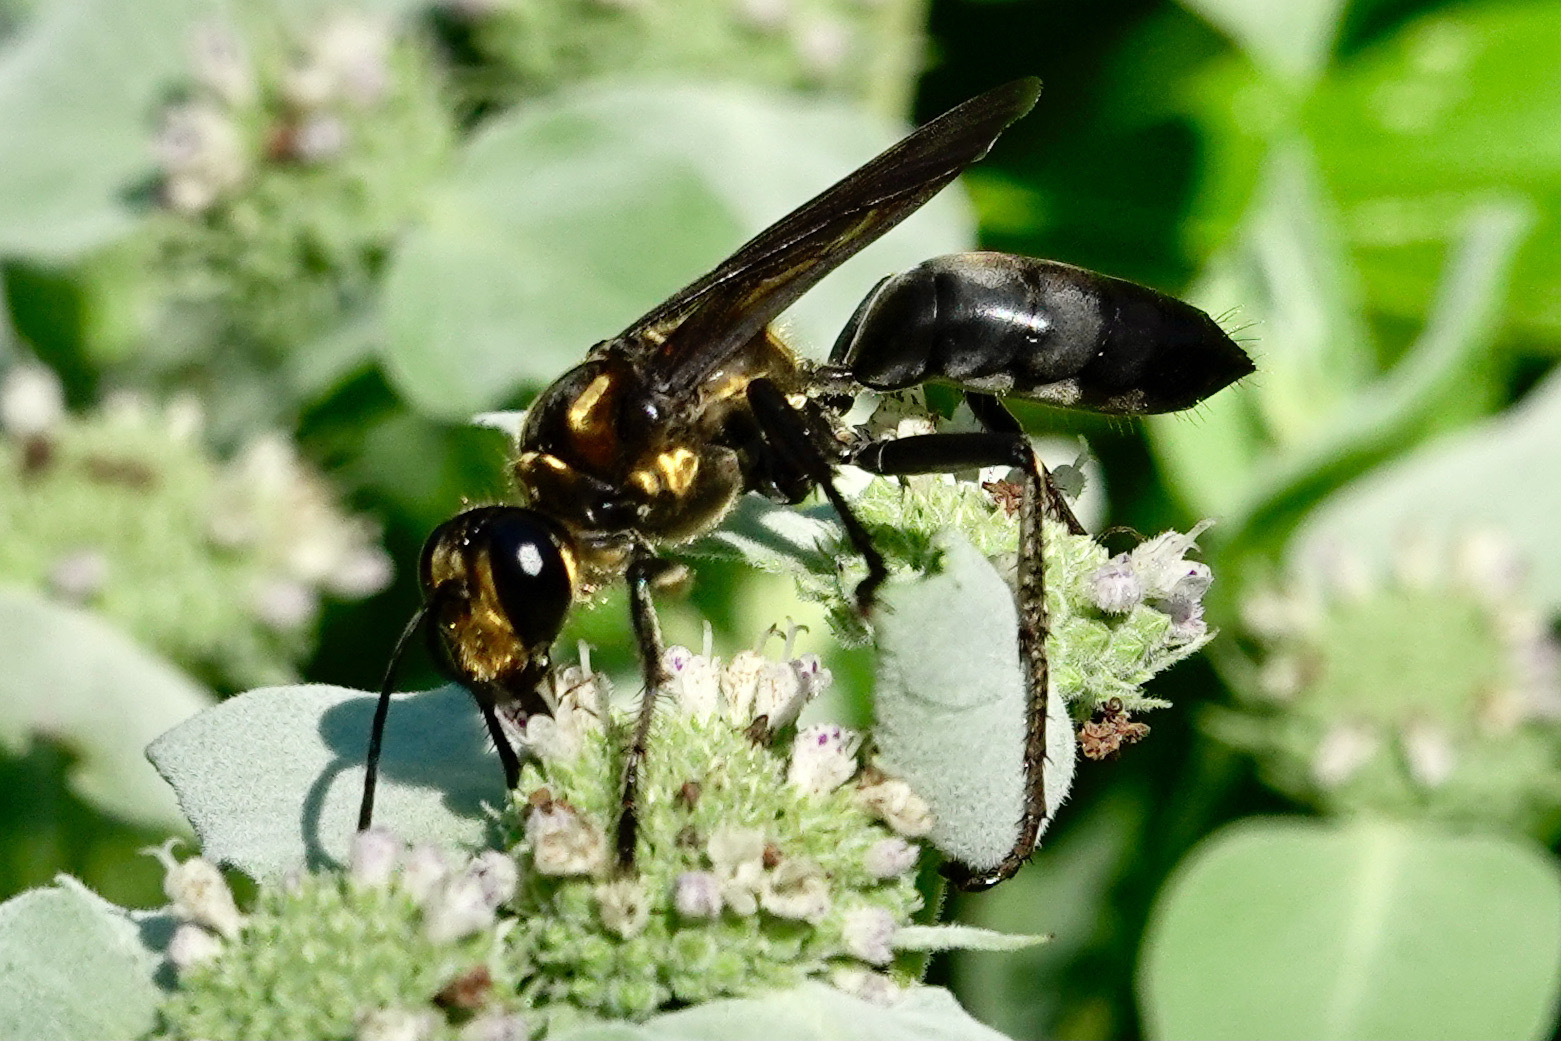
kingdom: Animalia
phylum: Arthropoda
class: Insecta
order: Hymenoptera
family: Sphecidae
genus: Sphex
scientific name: Sphex habenus
